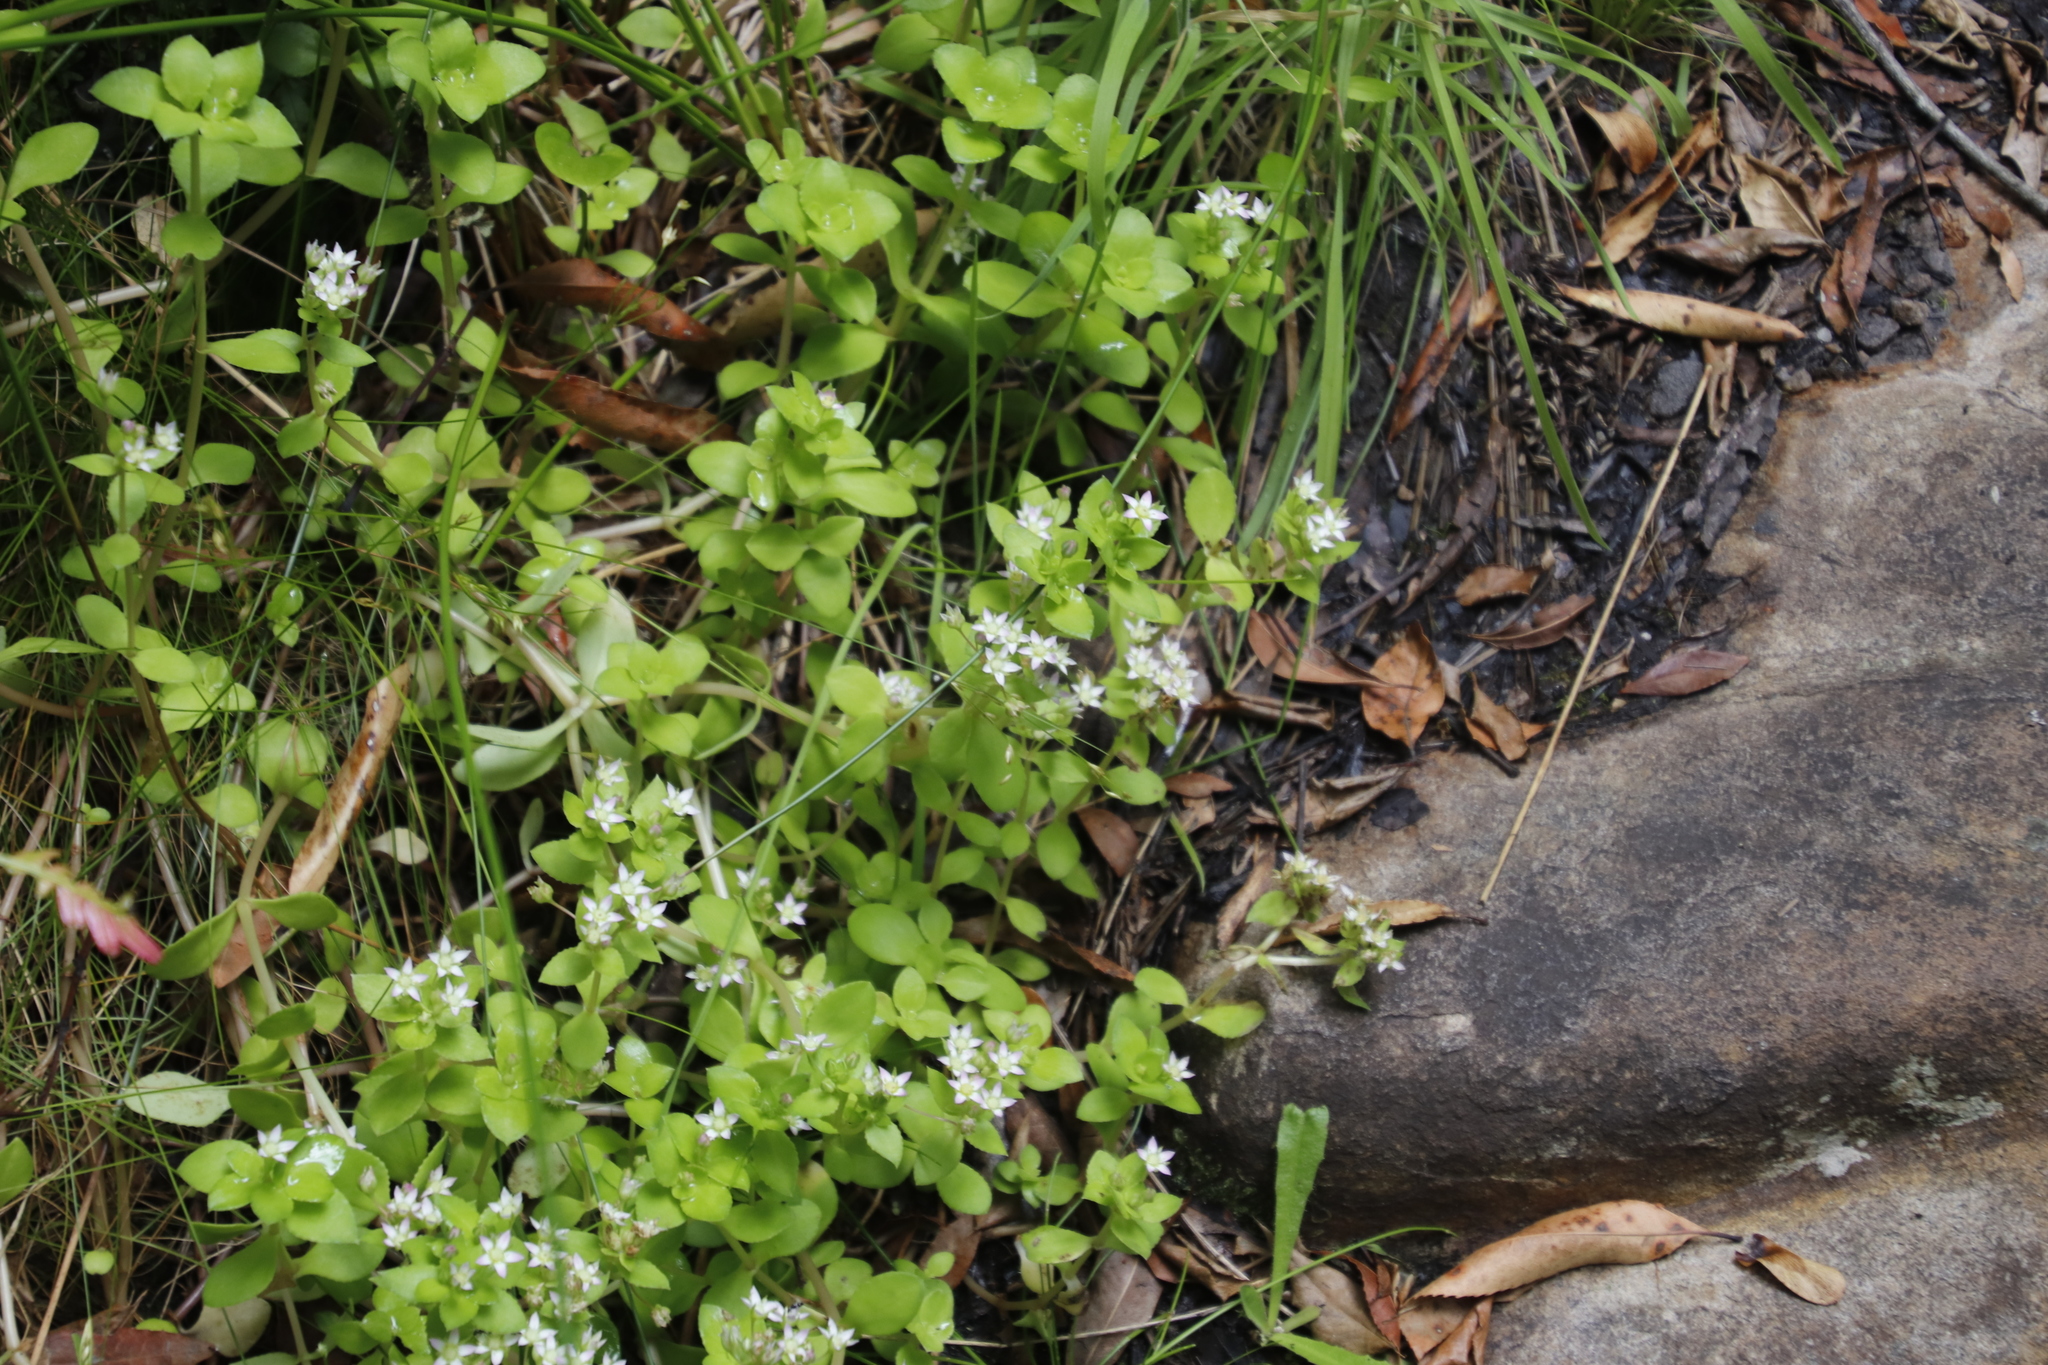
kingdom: Plantae
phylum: Tracheophyta
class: Magnoliopsida
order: Saxifragales
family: Crassulaceae
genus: Crassula
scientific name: Crassula pellucida
